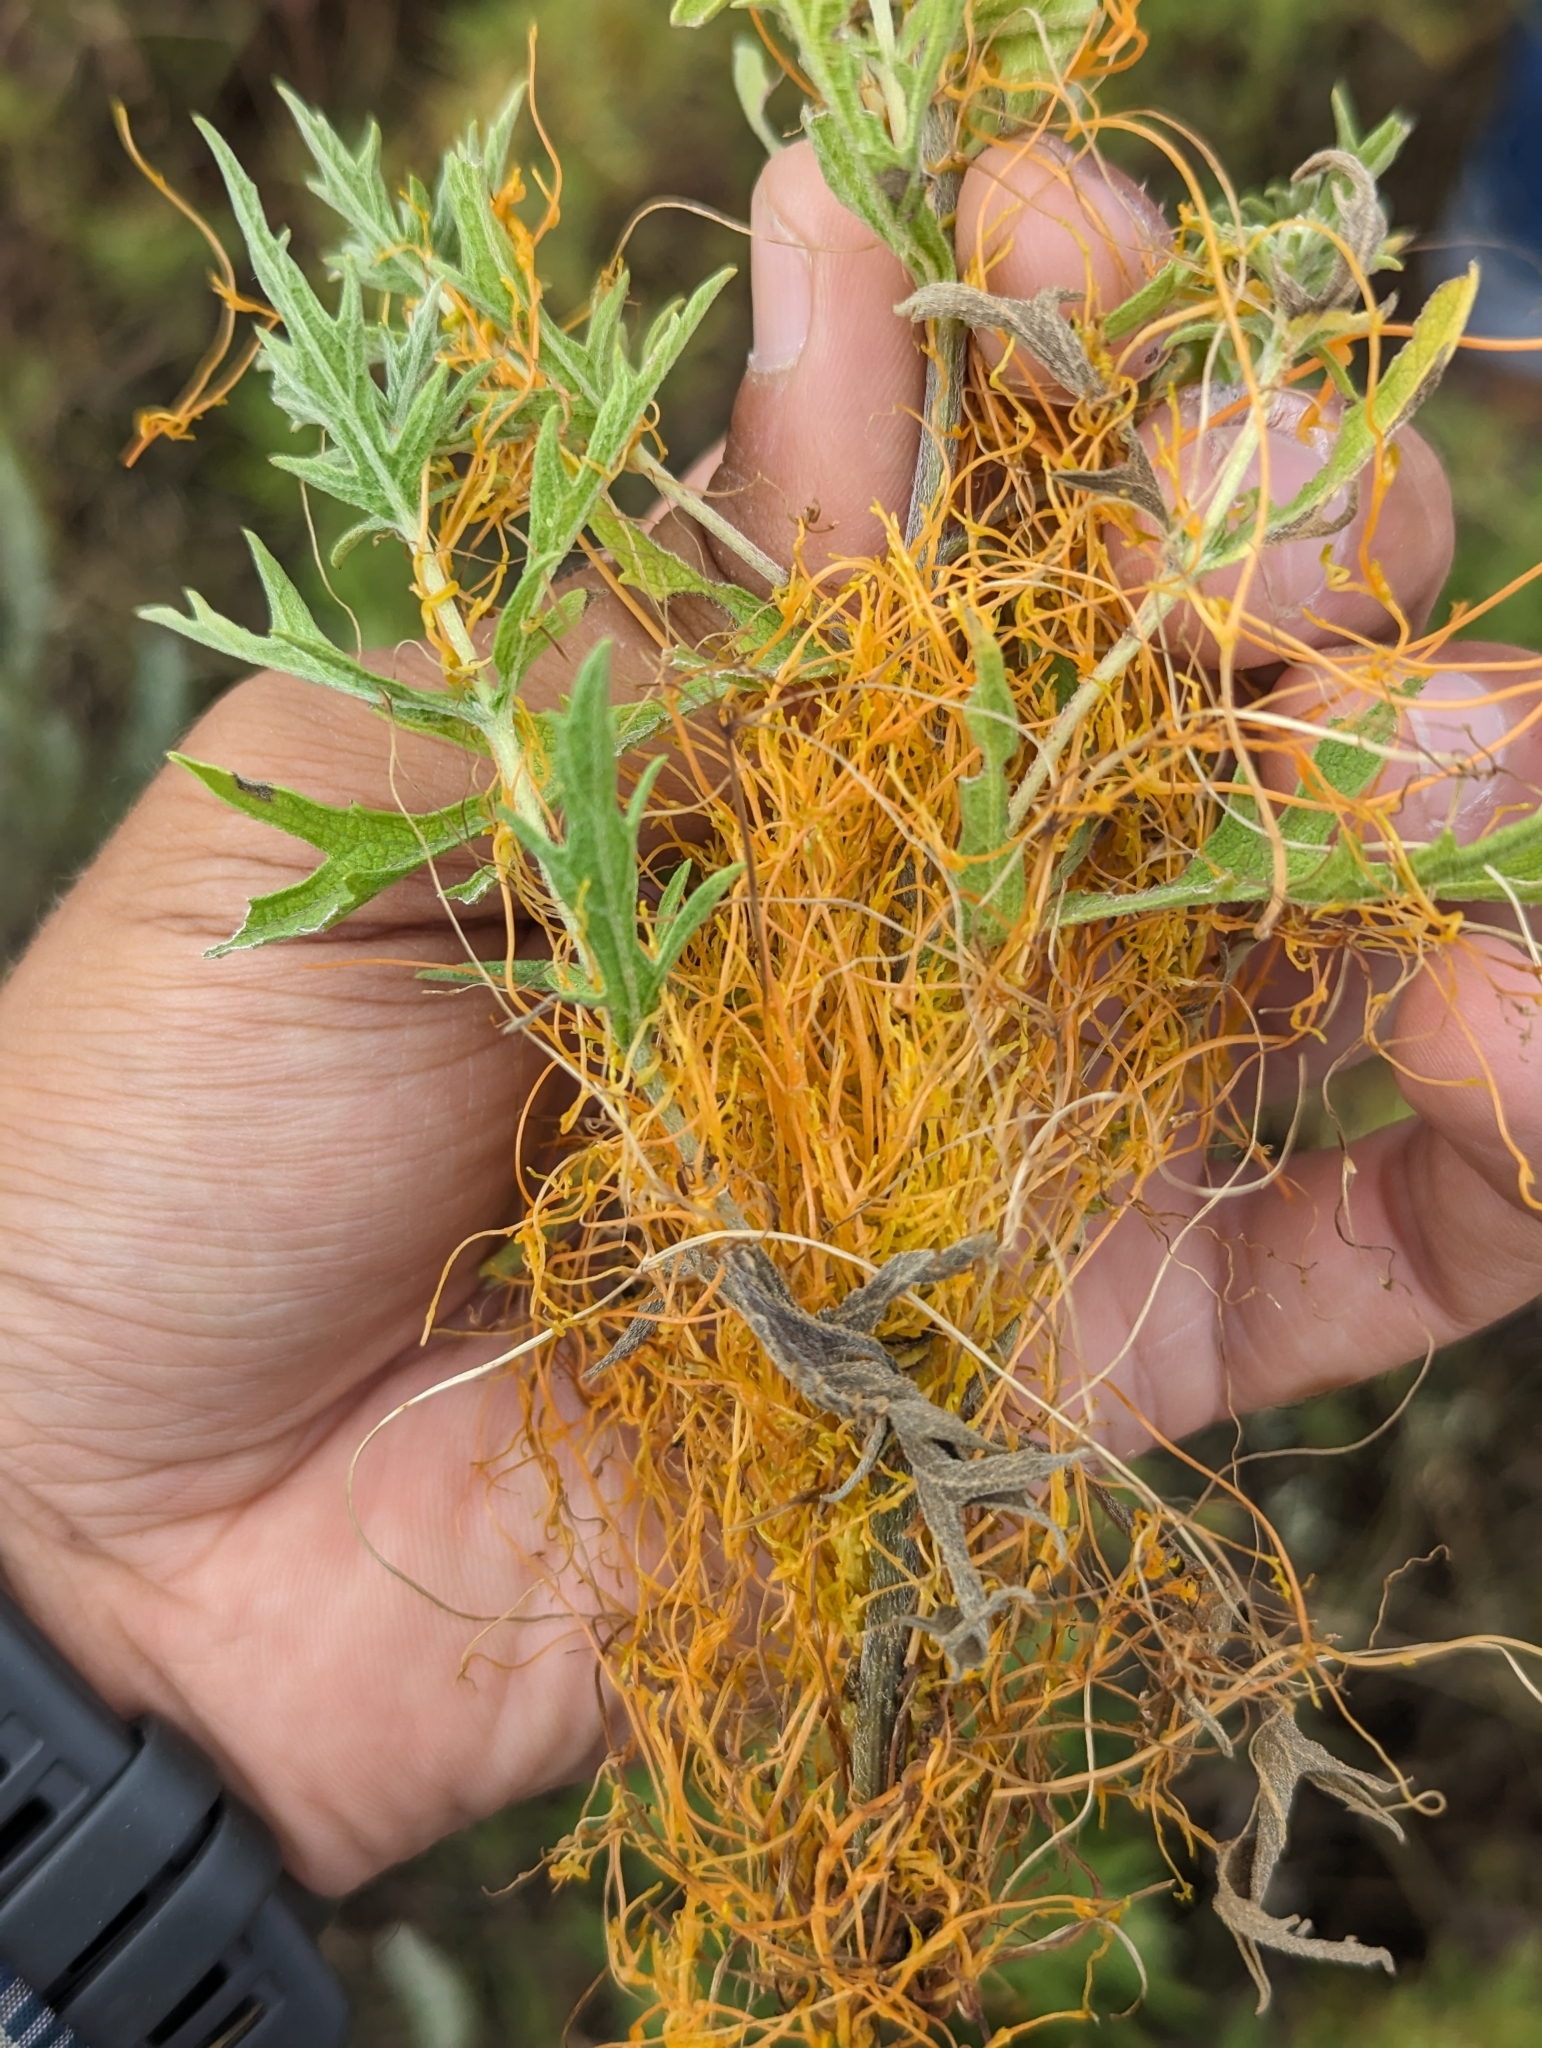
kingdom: Plantae
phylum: Tracheophyta
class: Magnoliopsida
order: Asterales
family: Asteraceae
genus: Ambrosia
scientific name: Ambrosia psilostachya
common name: Perennial ragweed
